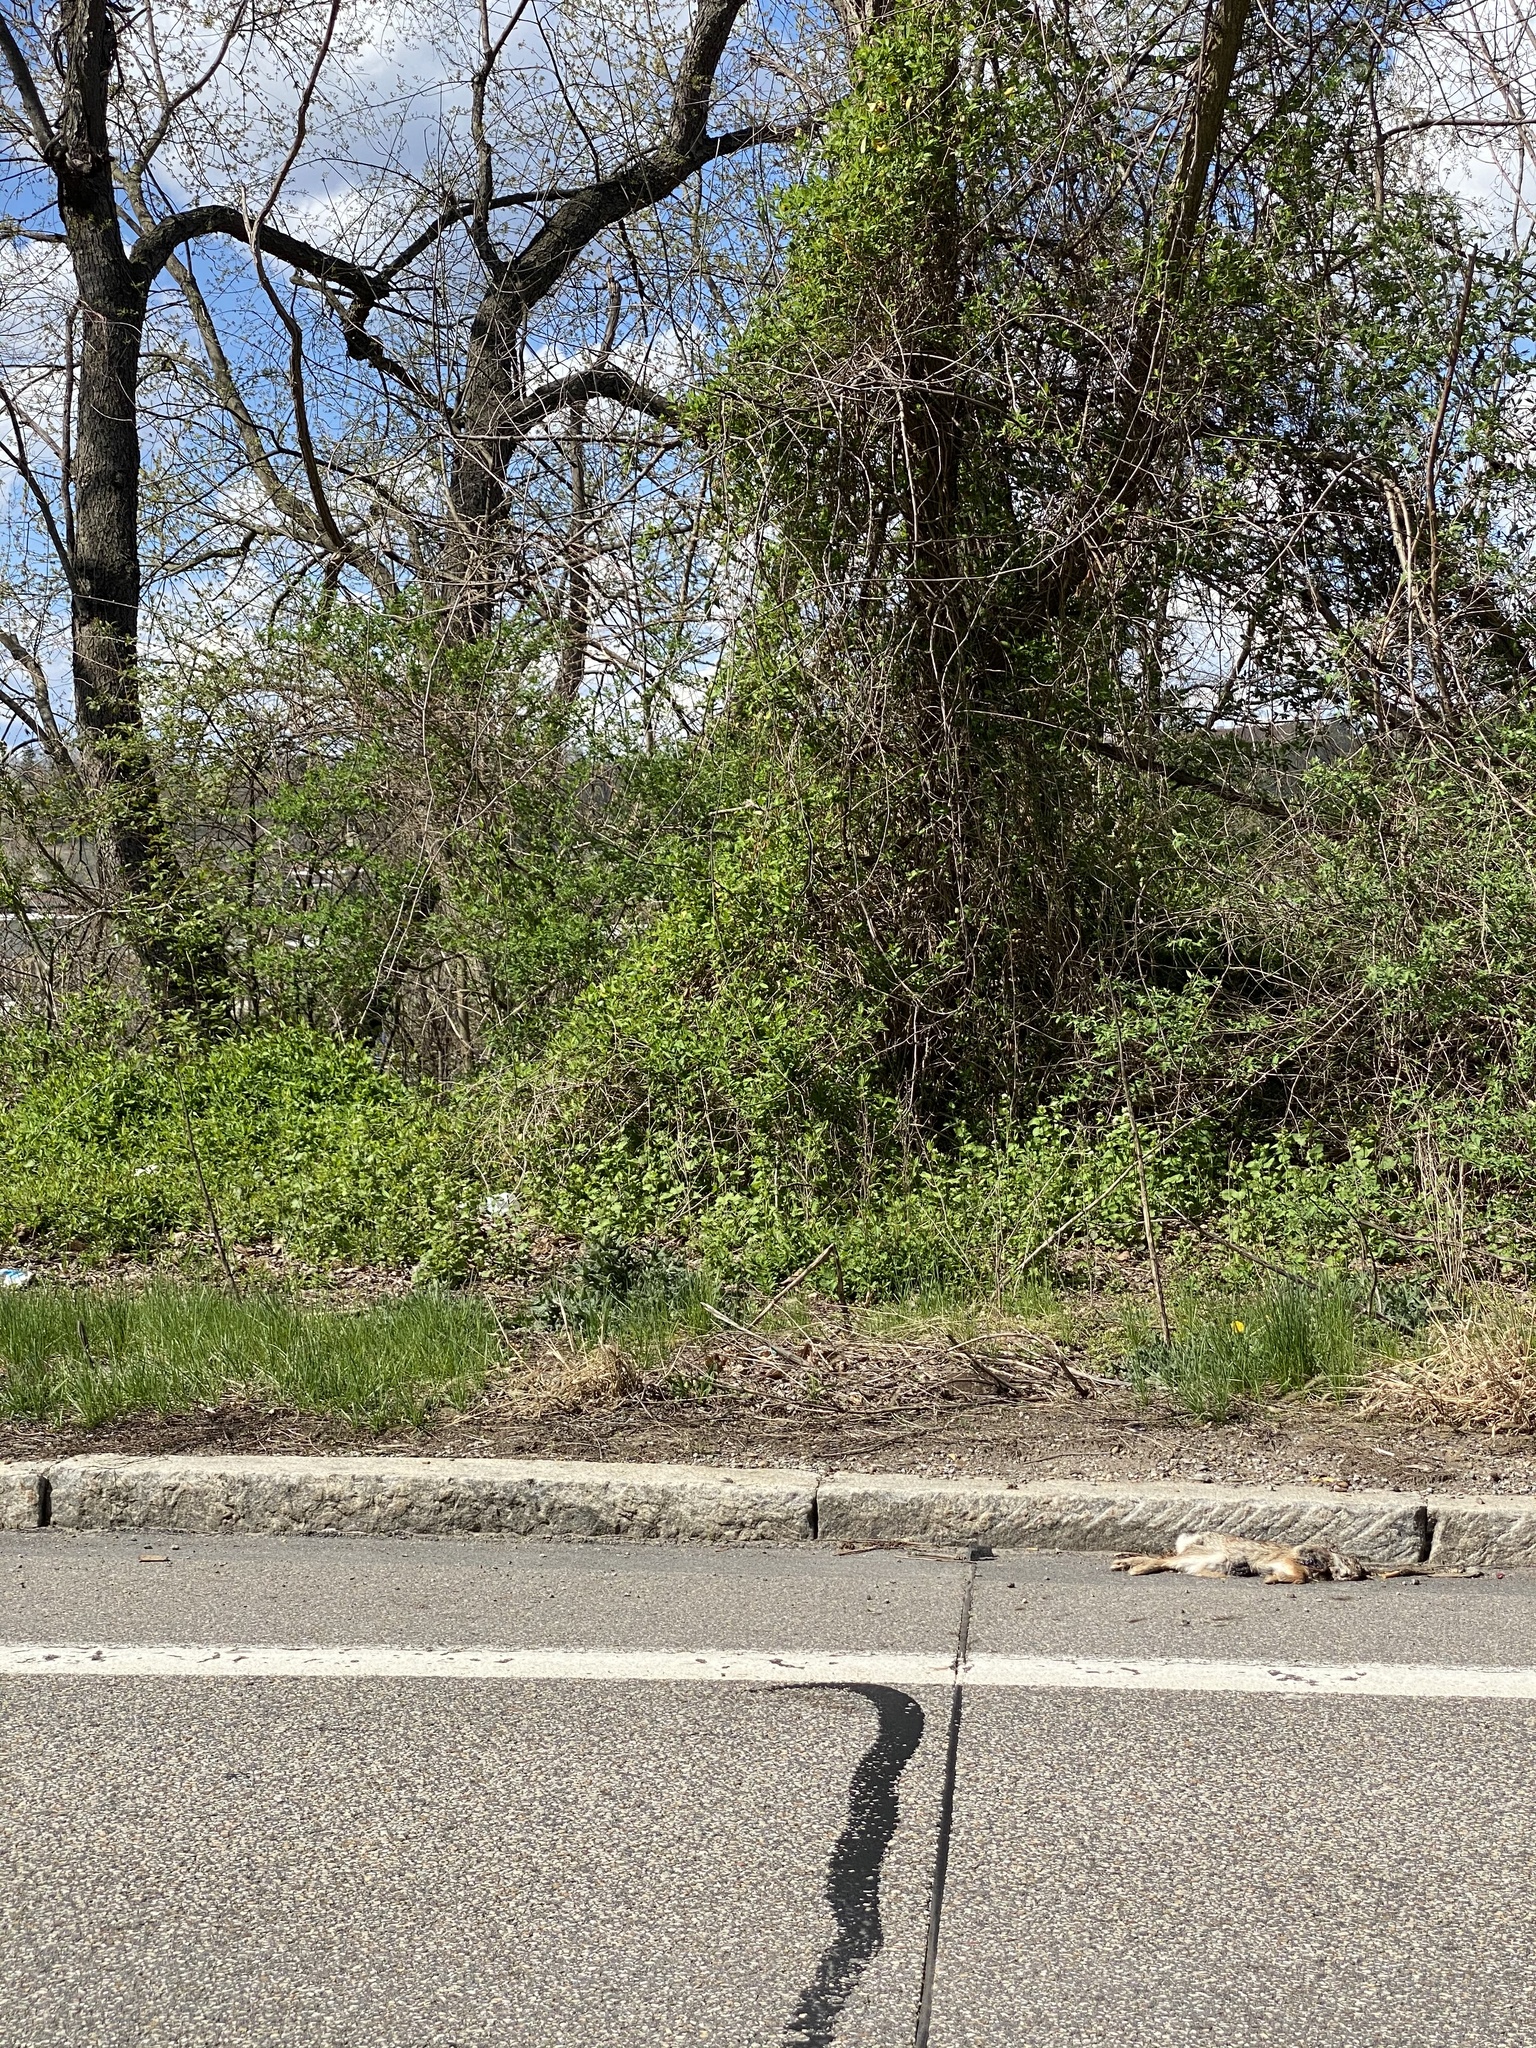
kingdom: Plantae
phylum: Tracheophyta
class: Magnoliopsida
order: Brassicales
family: Brassicaceae
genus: Alliaria
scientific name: Alliaria petiolata
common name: Garlic mustard
